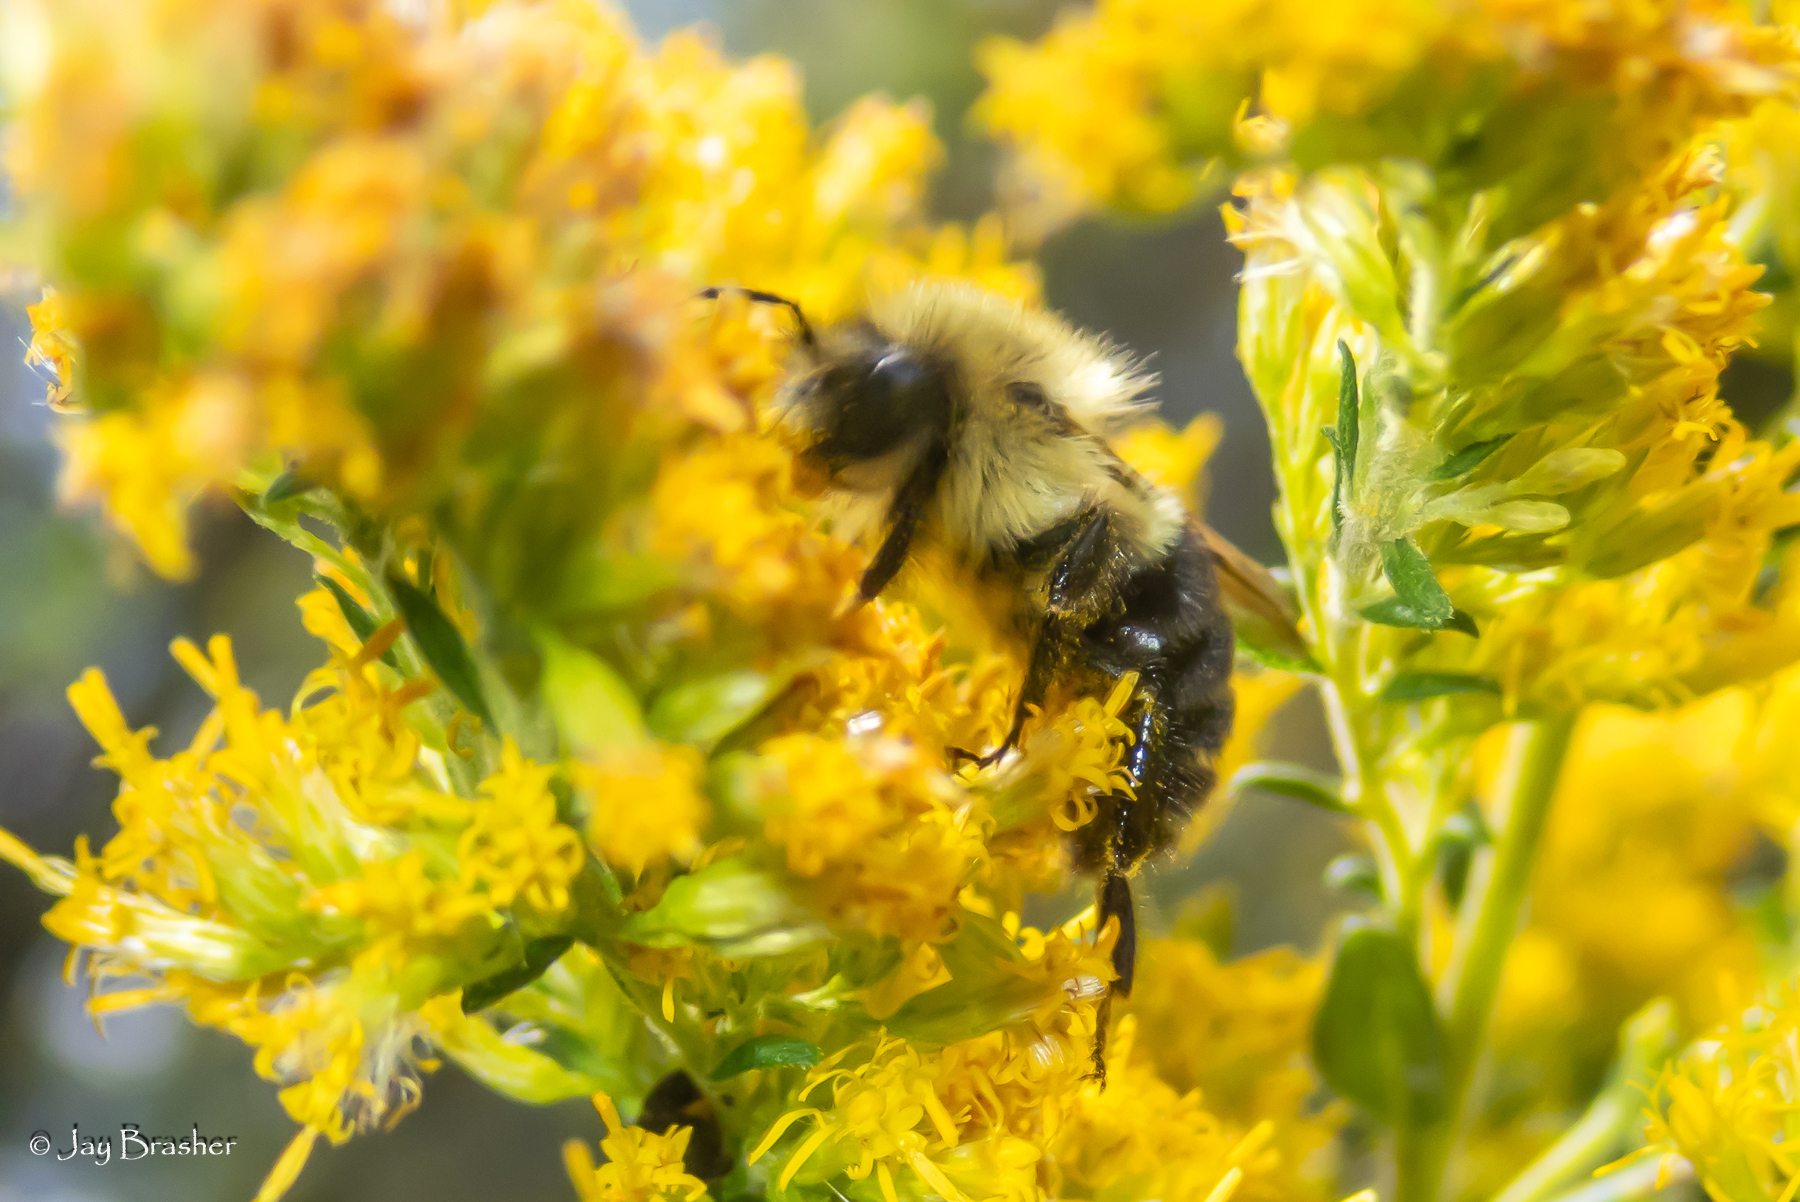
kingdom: Animalia
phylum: Arthropoda
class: Insecta
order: Hymenoptera
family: Apidae
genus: Bombus
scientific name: Bombus impatiens
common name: Common eastern bumble bee
